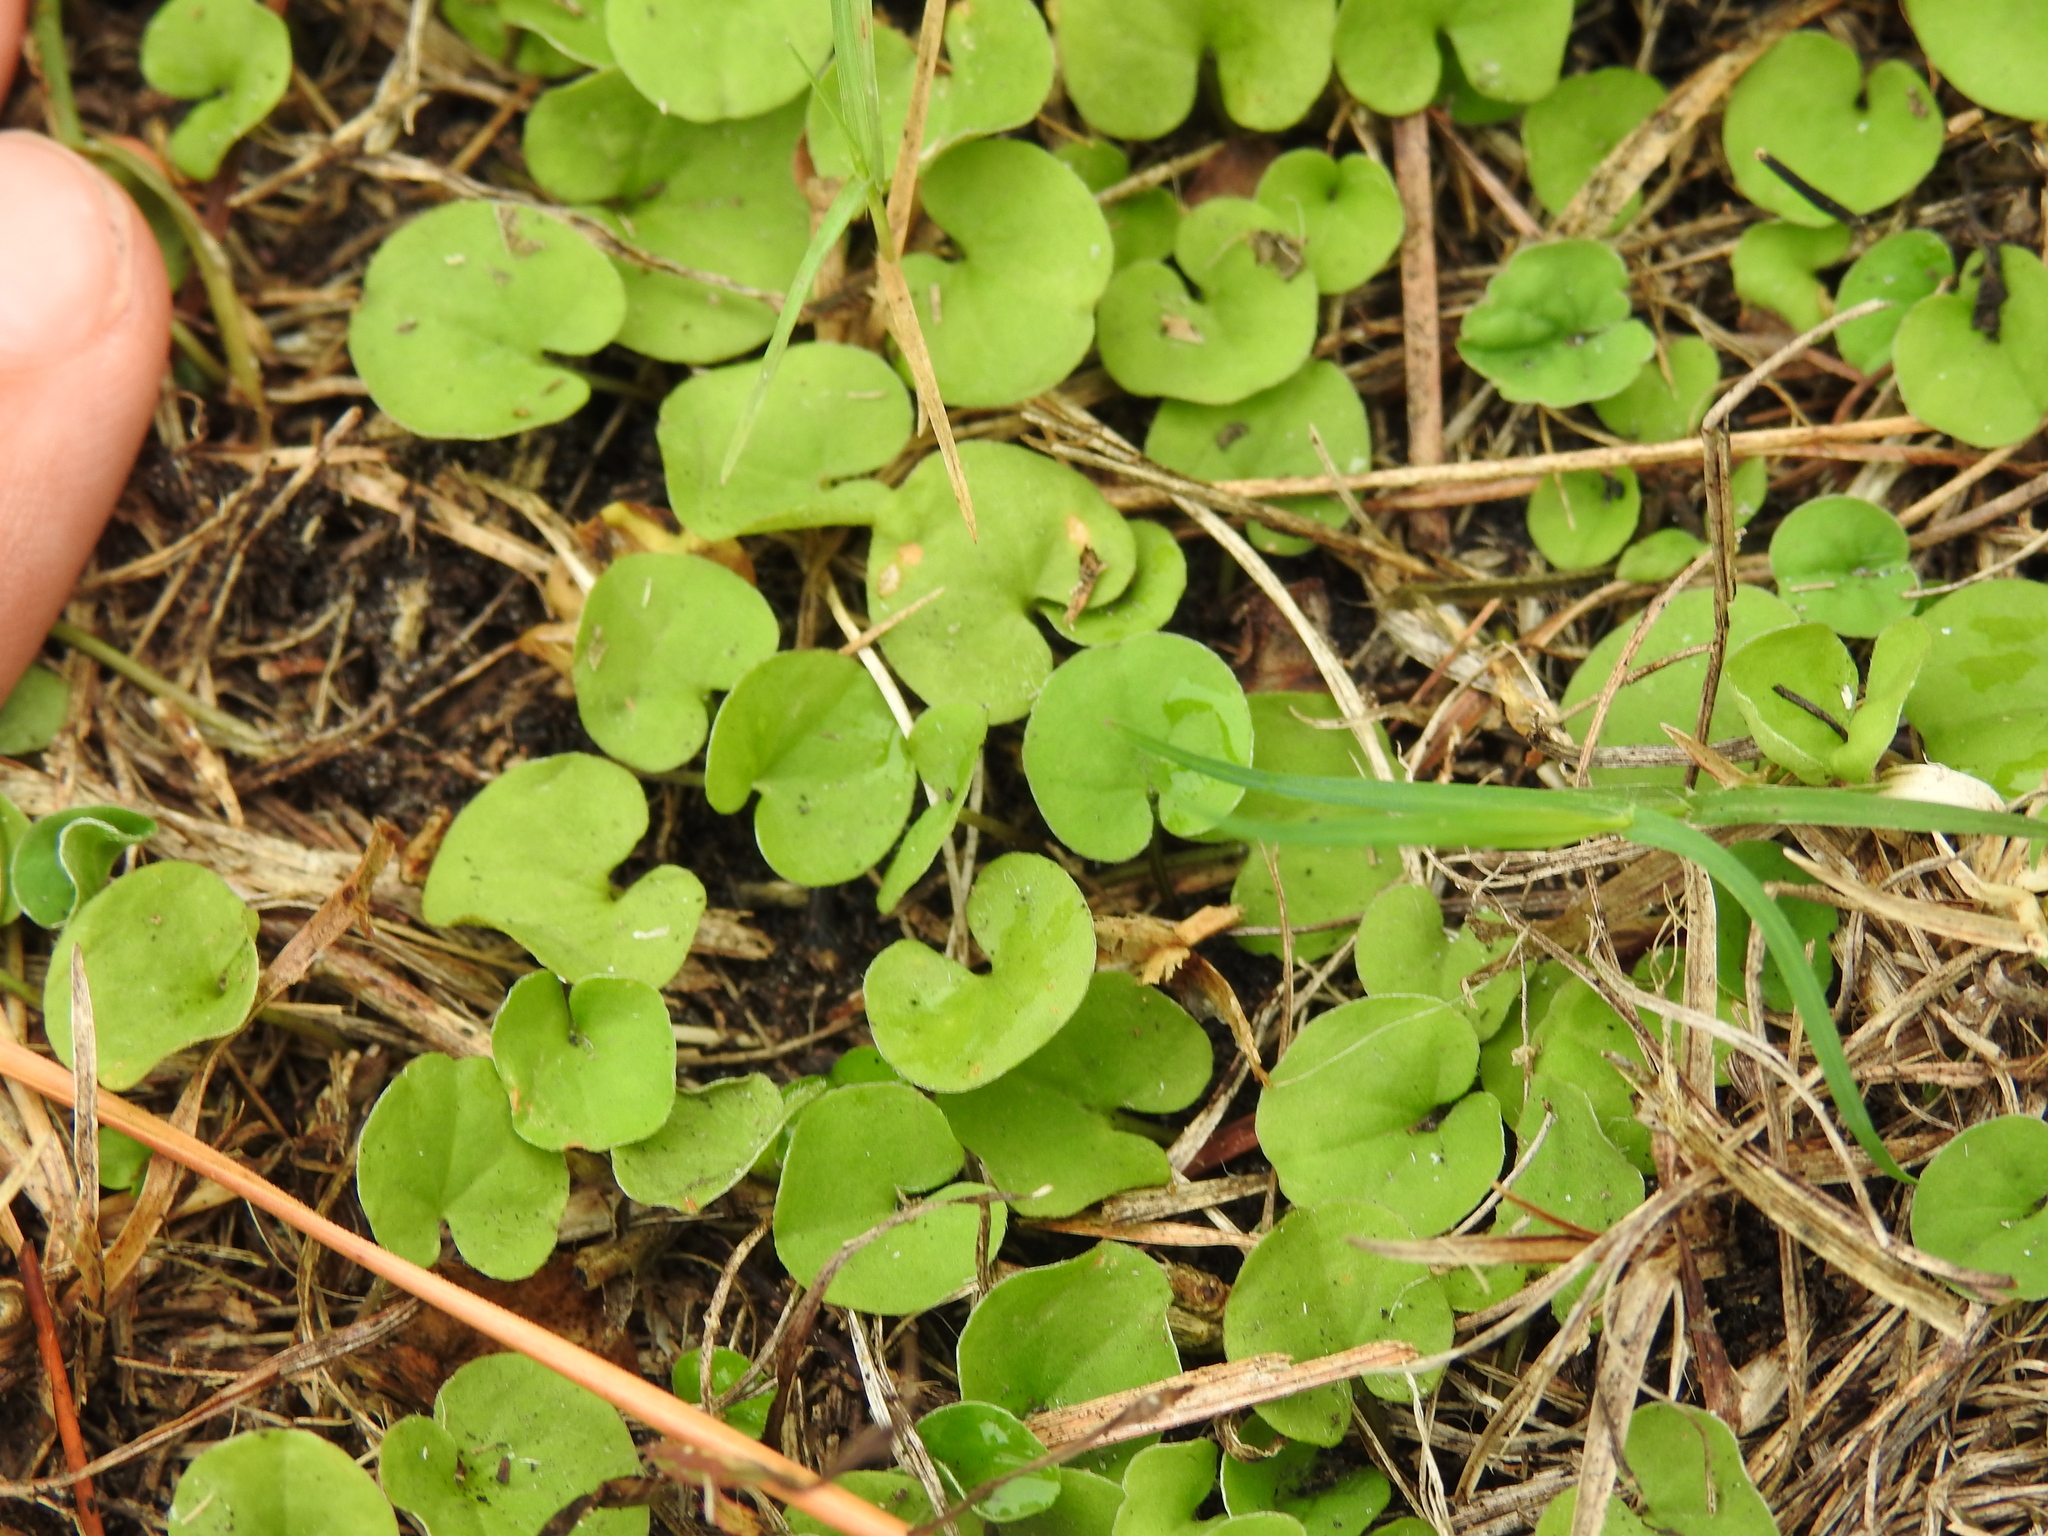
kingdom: Plantae
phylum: Tracheophyta
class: Magnoliopsida
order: Solanales
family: Convolvulaceae
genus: Dichondra
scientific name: Dichondra carolinensis
